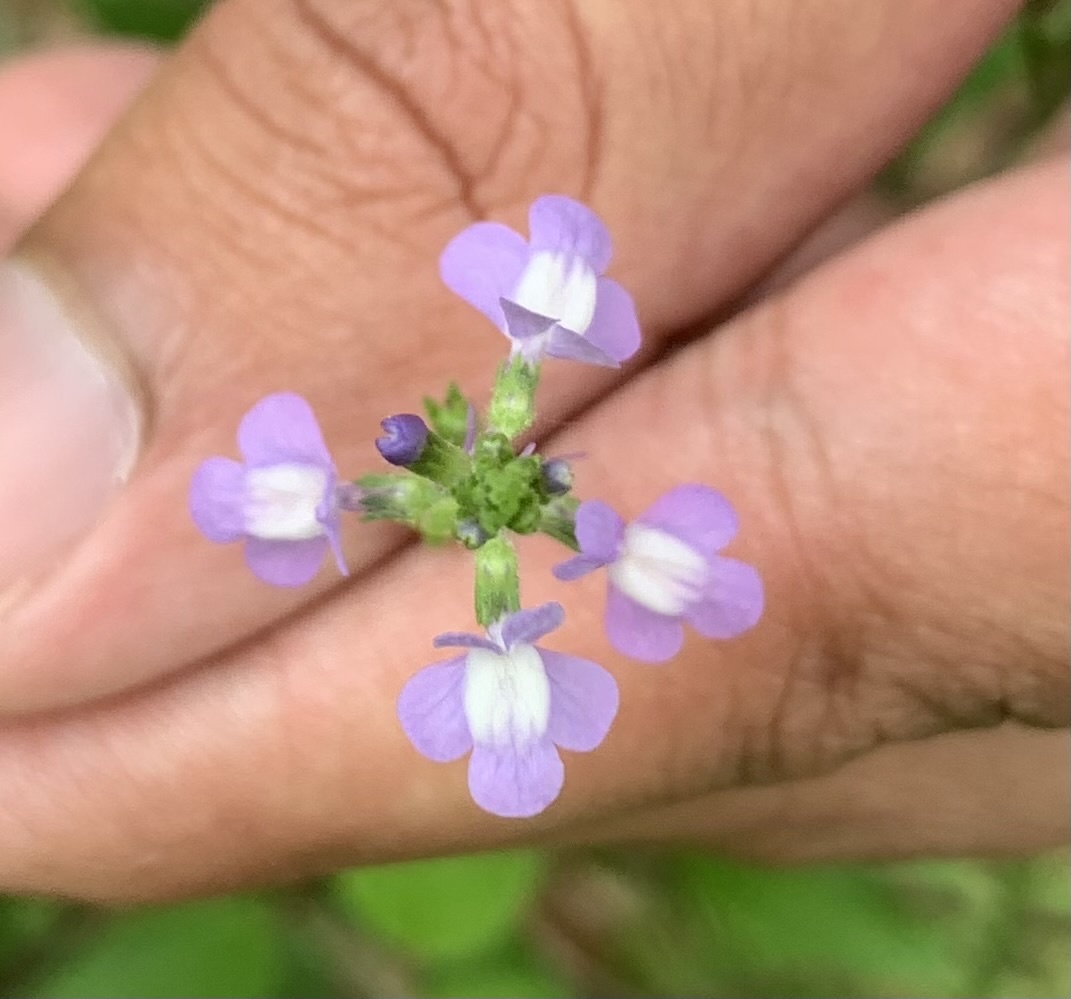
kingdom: Plantae
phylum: Tracheophyta
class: Magnoliopsida
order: Lamiales
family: Plantaginaceae
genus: Nuttallanthus
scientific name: Nuttallanthus canadensis
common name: Blue toadflax
